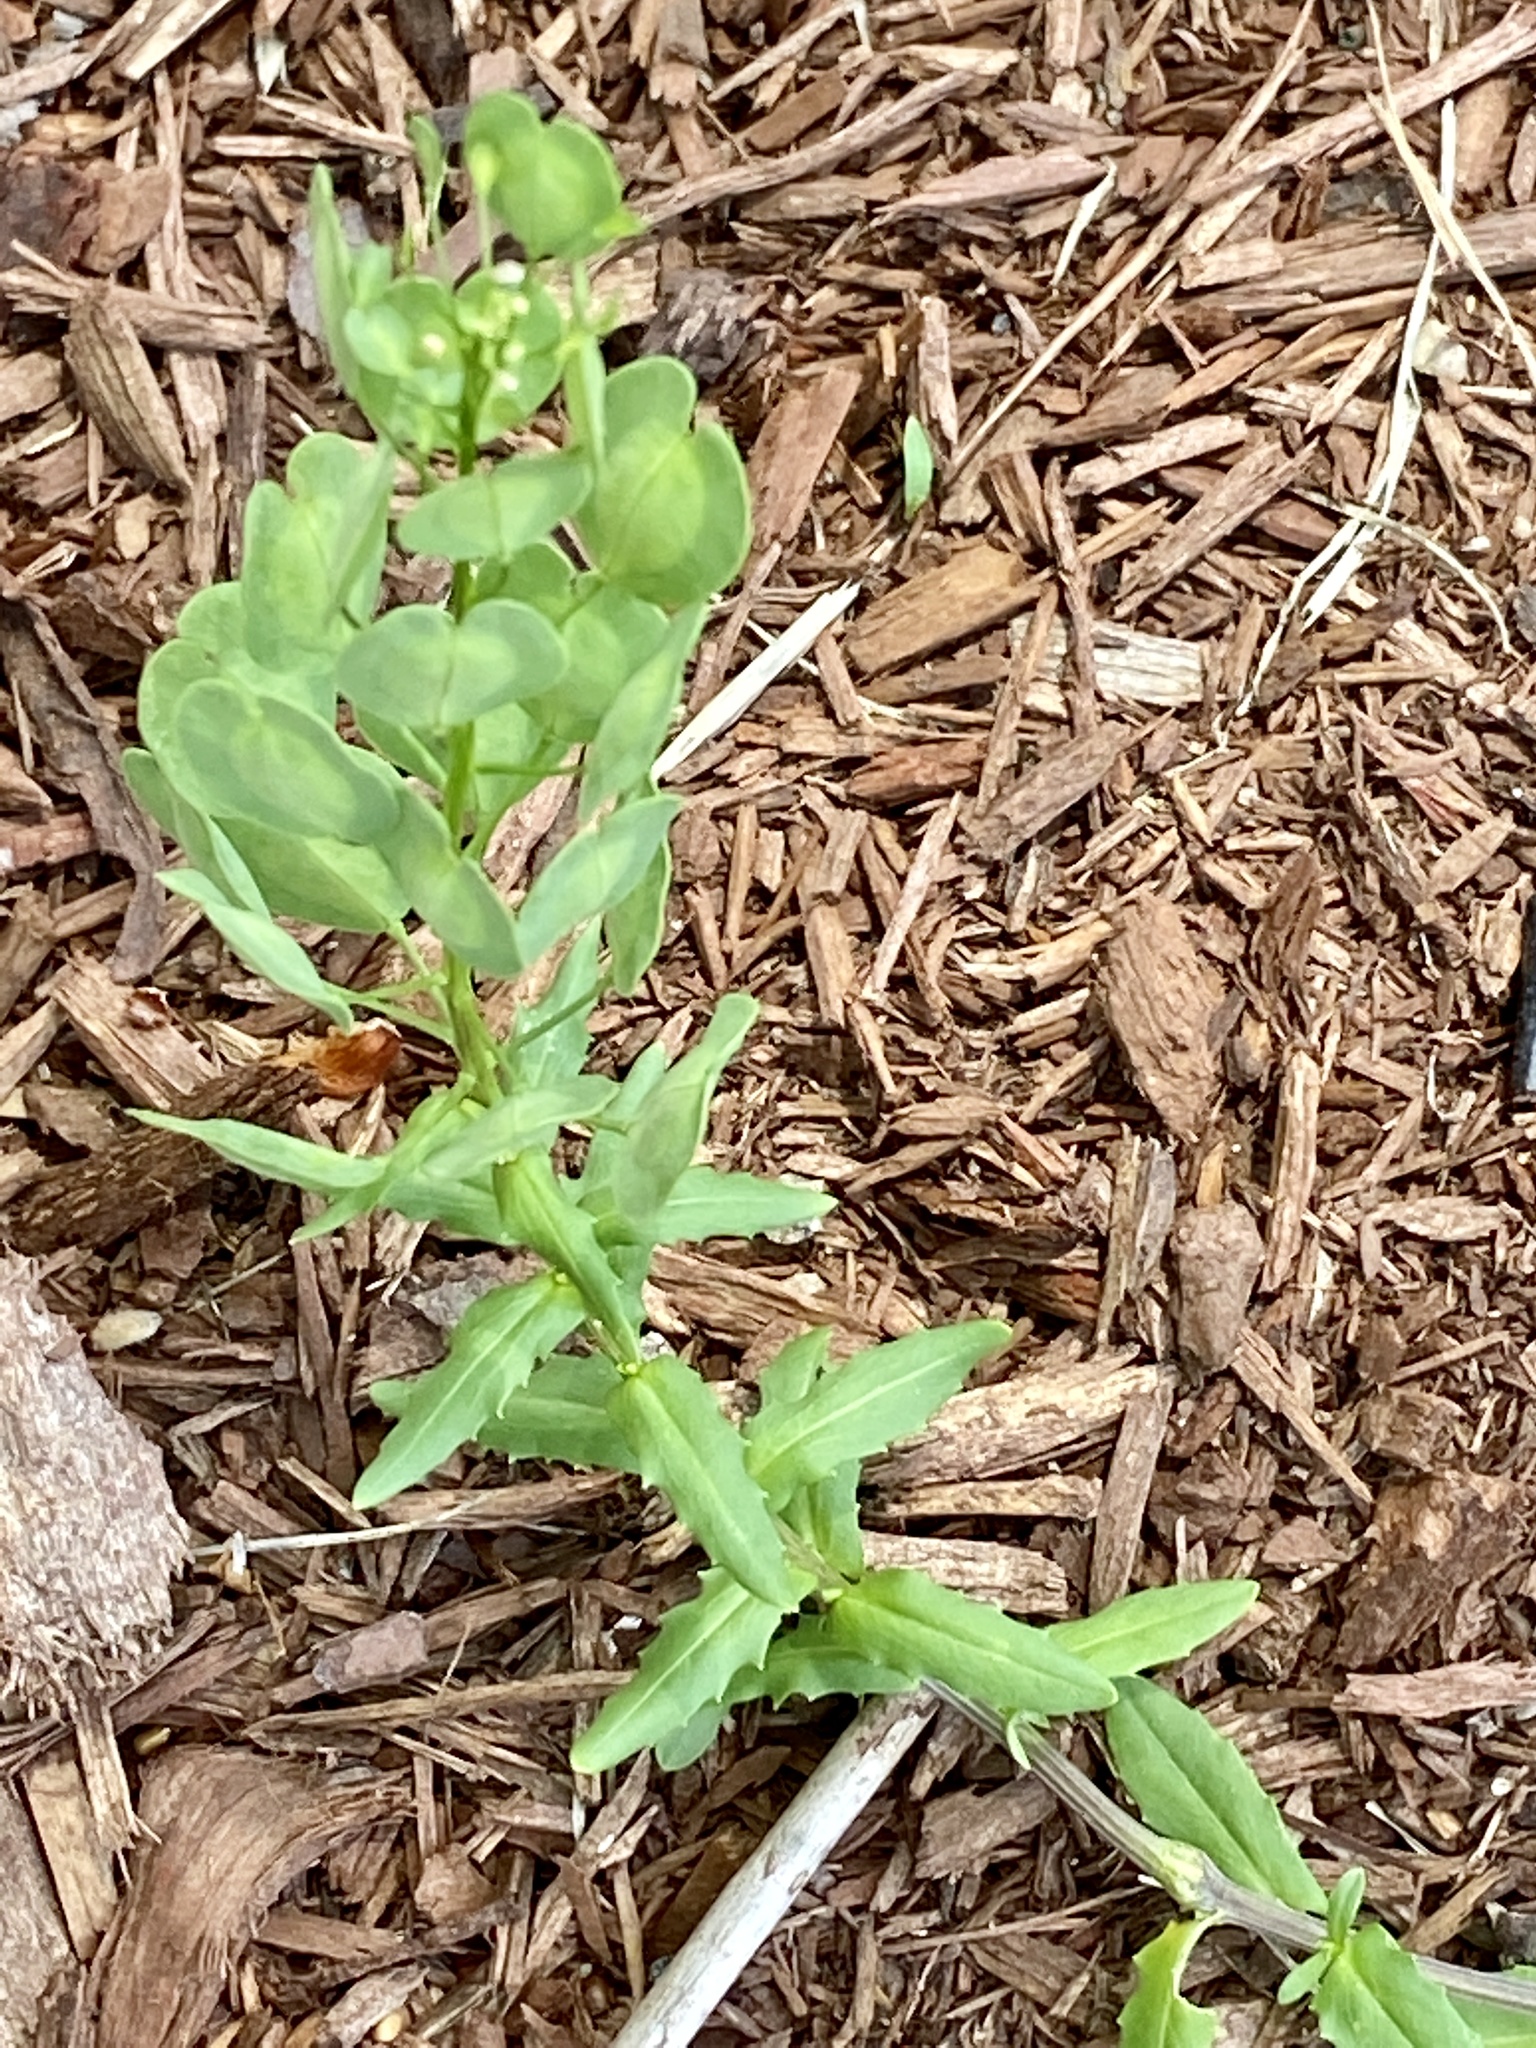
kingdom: Plantae
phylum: Tracheophyta
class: Magnoliopsida
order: Brassicales
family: Brassicaceae
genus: Thlaspi
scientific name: Thlaspi arvense
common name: Field pennycress
